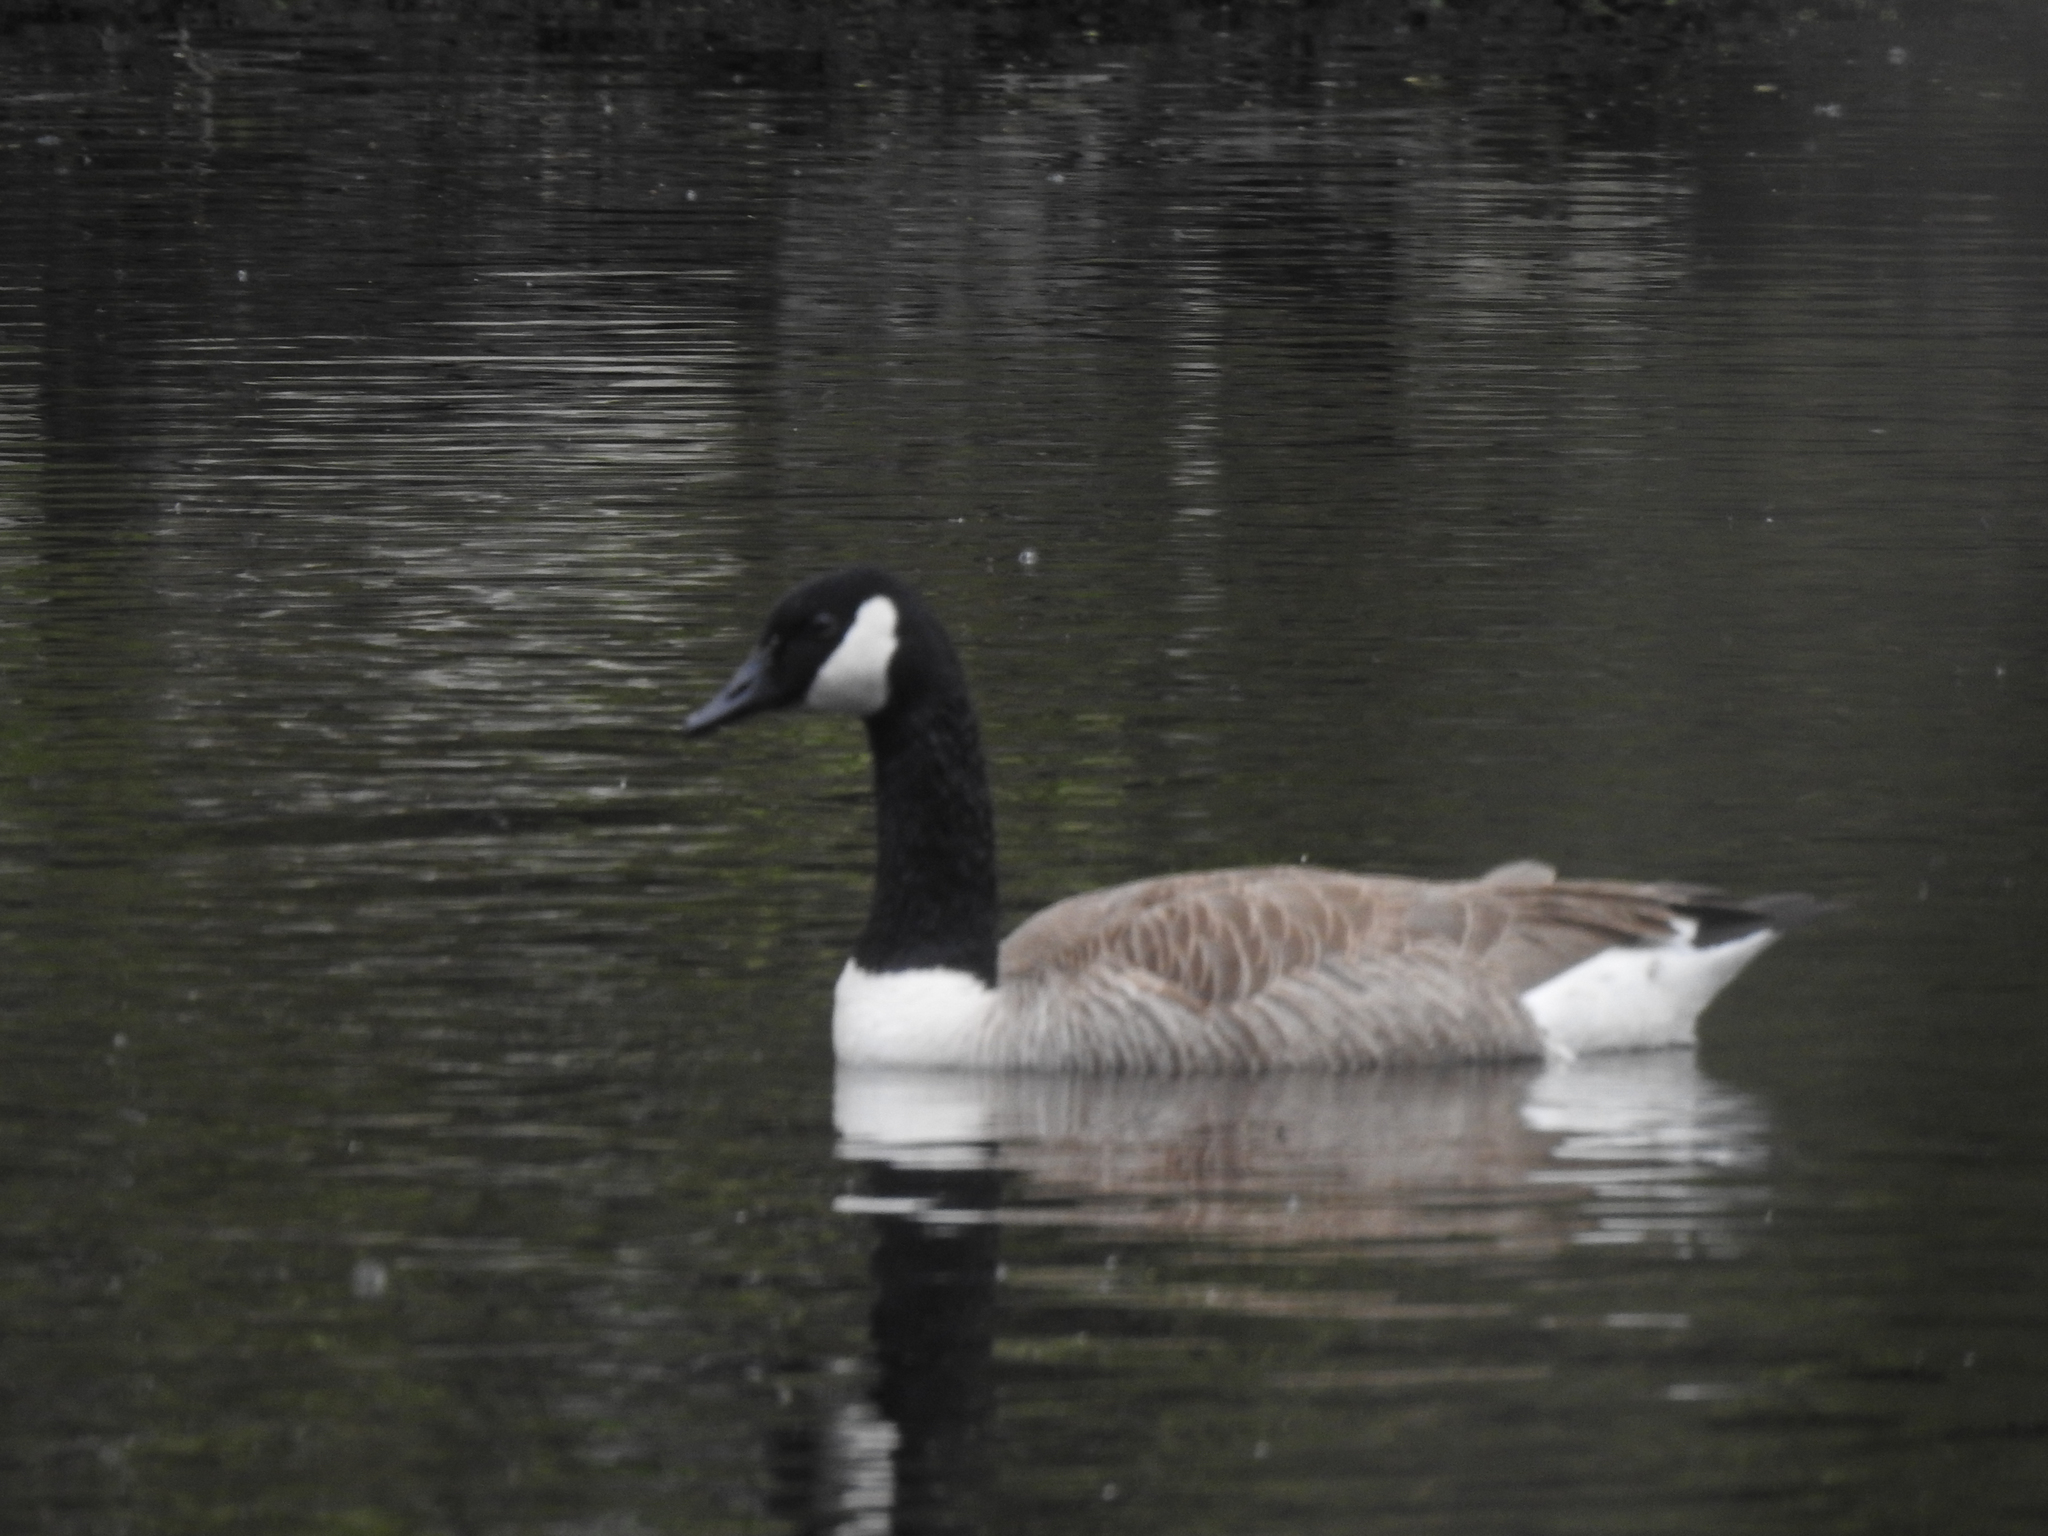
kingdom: Animalia
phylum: Chordata
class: Aves
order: Anseriformes
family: Anatidae
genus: Branta
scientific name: Branta canadensis
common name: Canada goose
